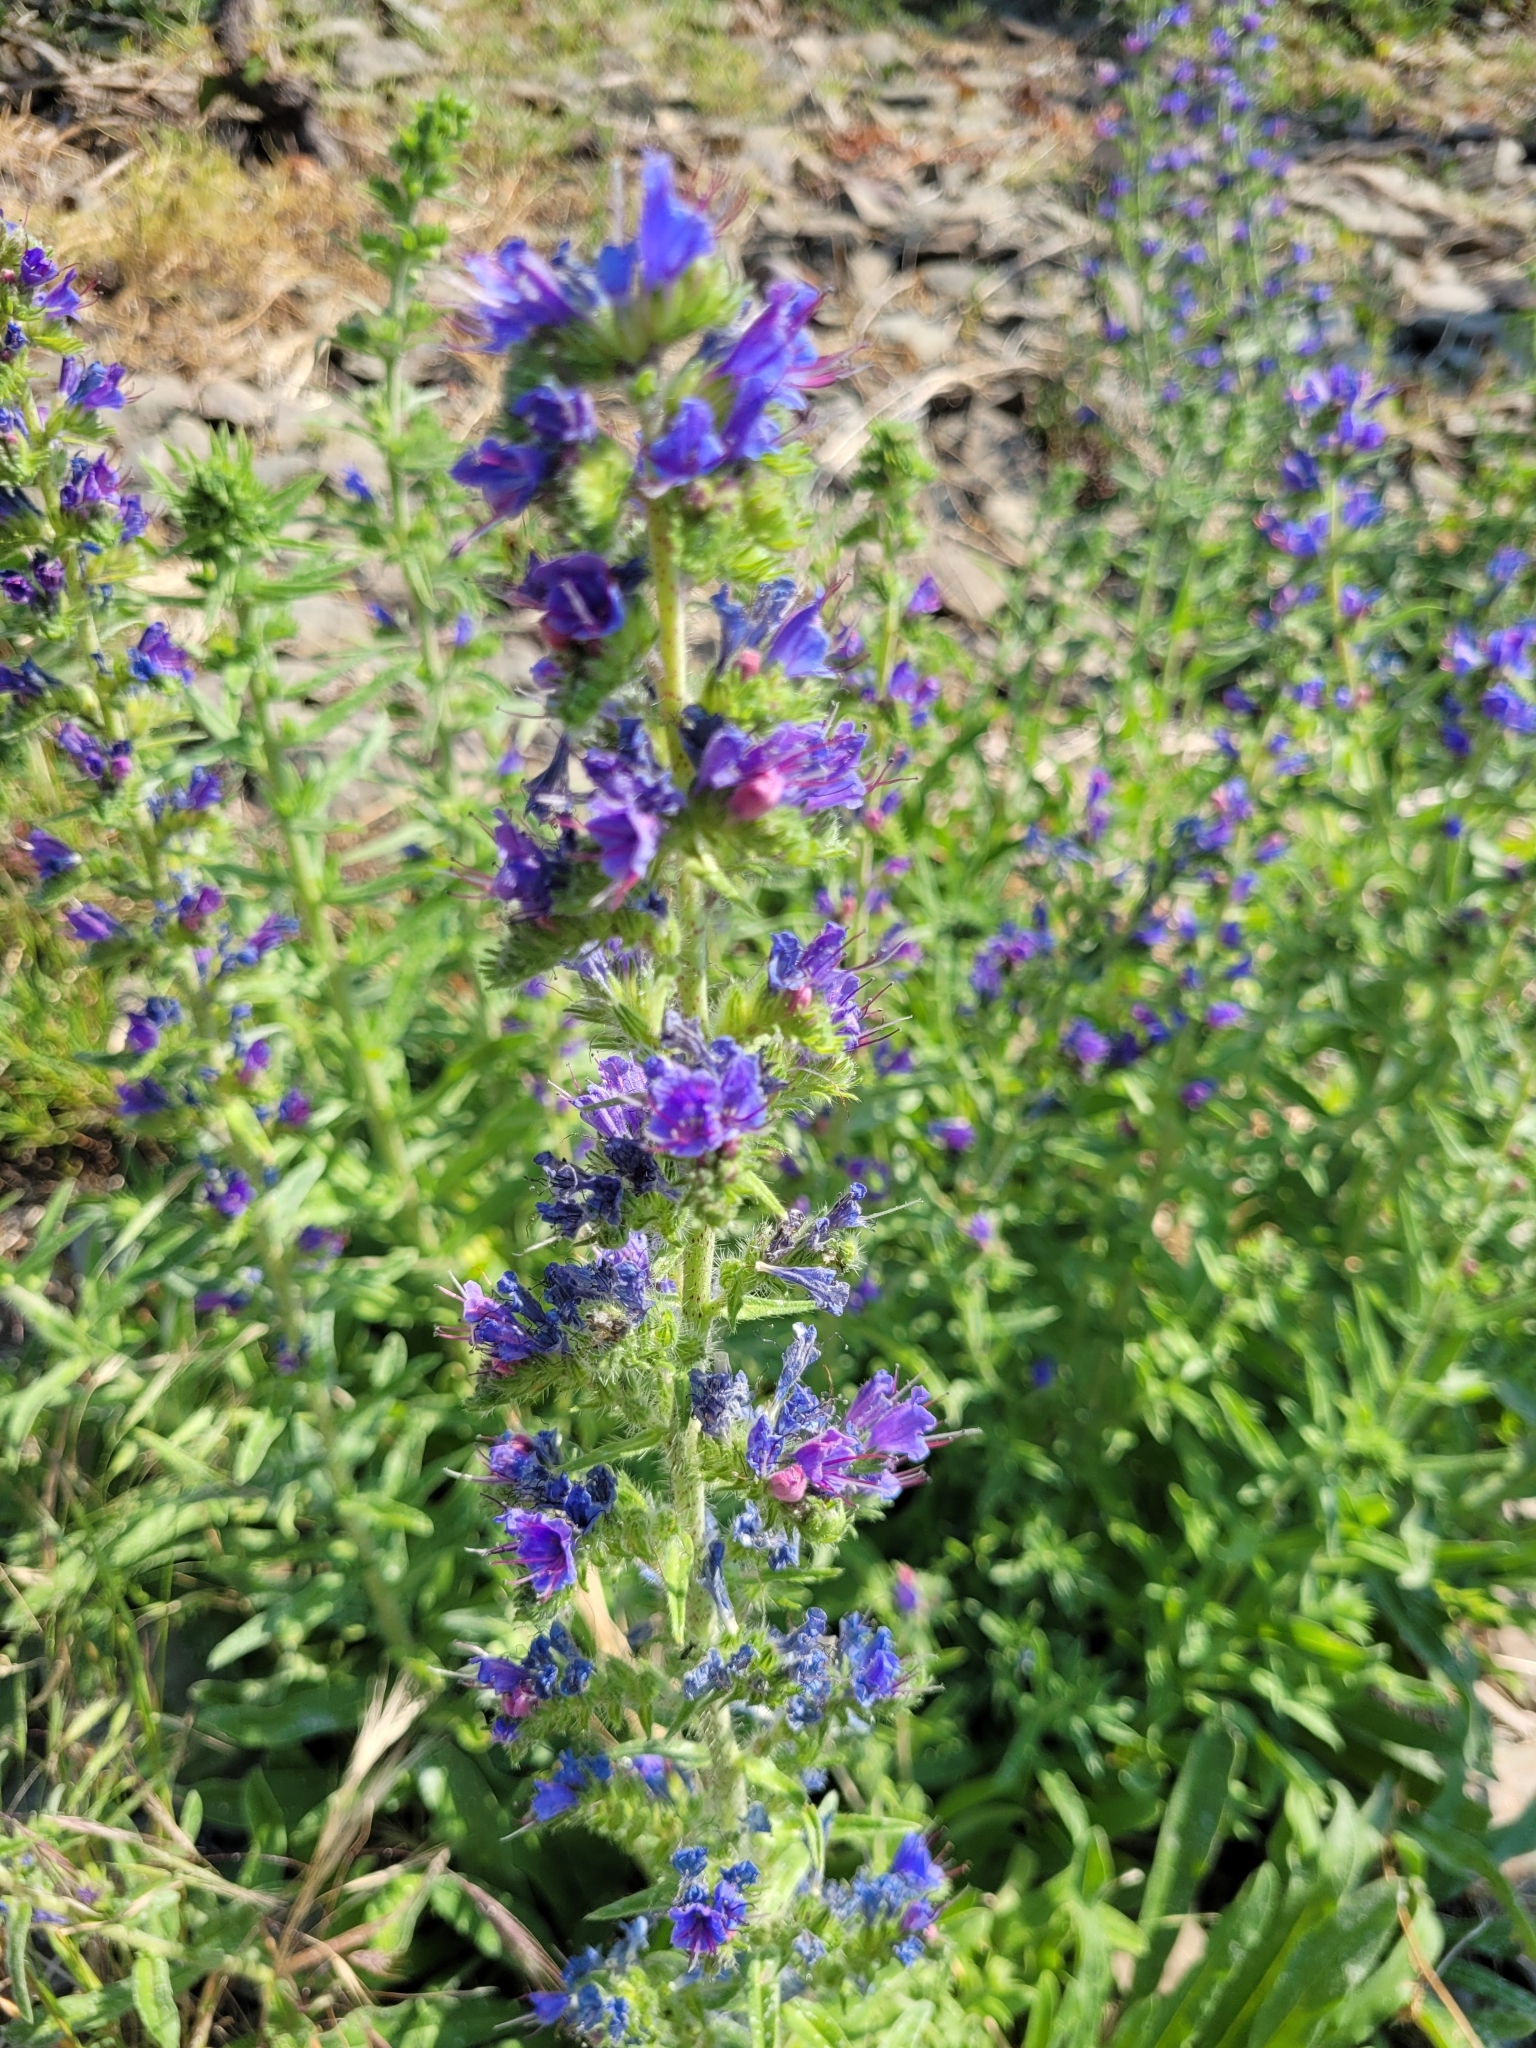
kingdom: Plantae
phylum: Tracheophyta
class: Magnoliopsida
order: Boraginales
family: Boraginaceae
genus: Echium
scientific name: Echium vulgare
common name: Common viper's bugloss
